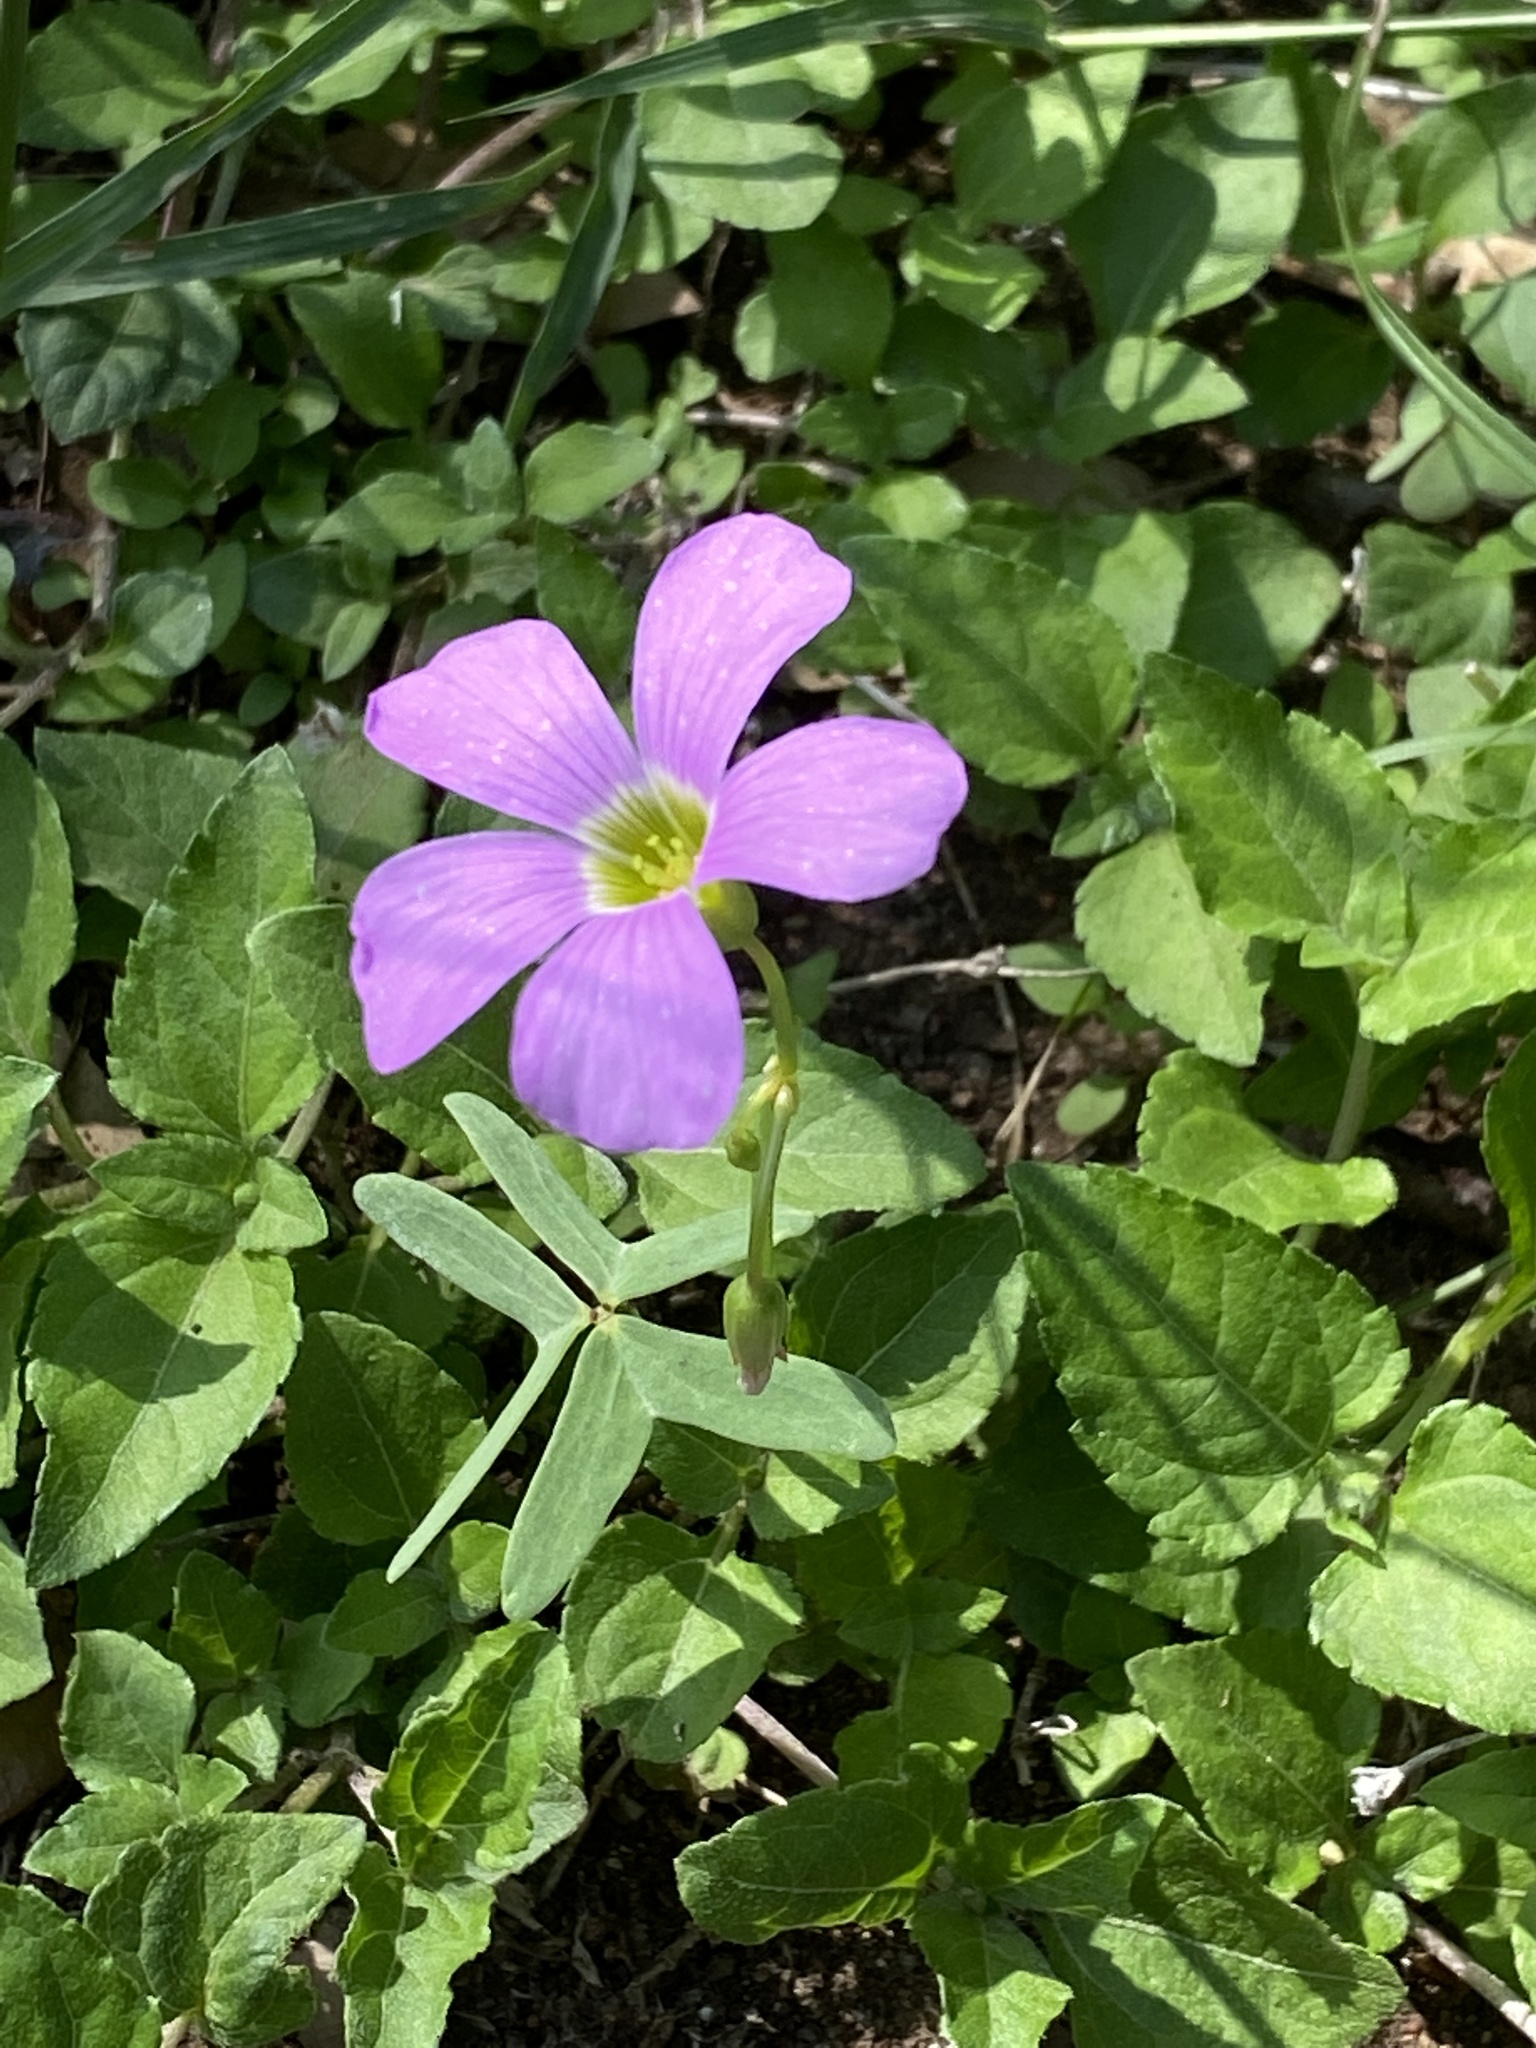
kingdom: Plantae
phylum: Tracheophyta
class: Magnoliopsida
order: Oxalidales
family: Oxalidaceae
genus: Oxalis
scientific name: Oxalis drummondii
